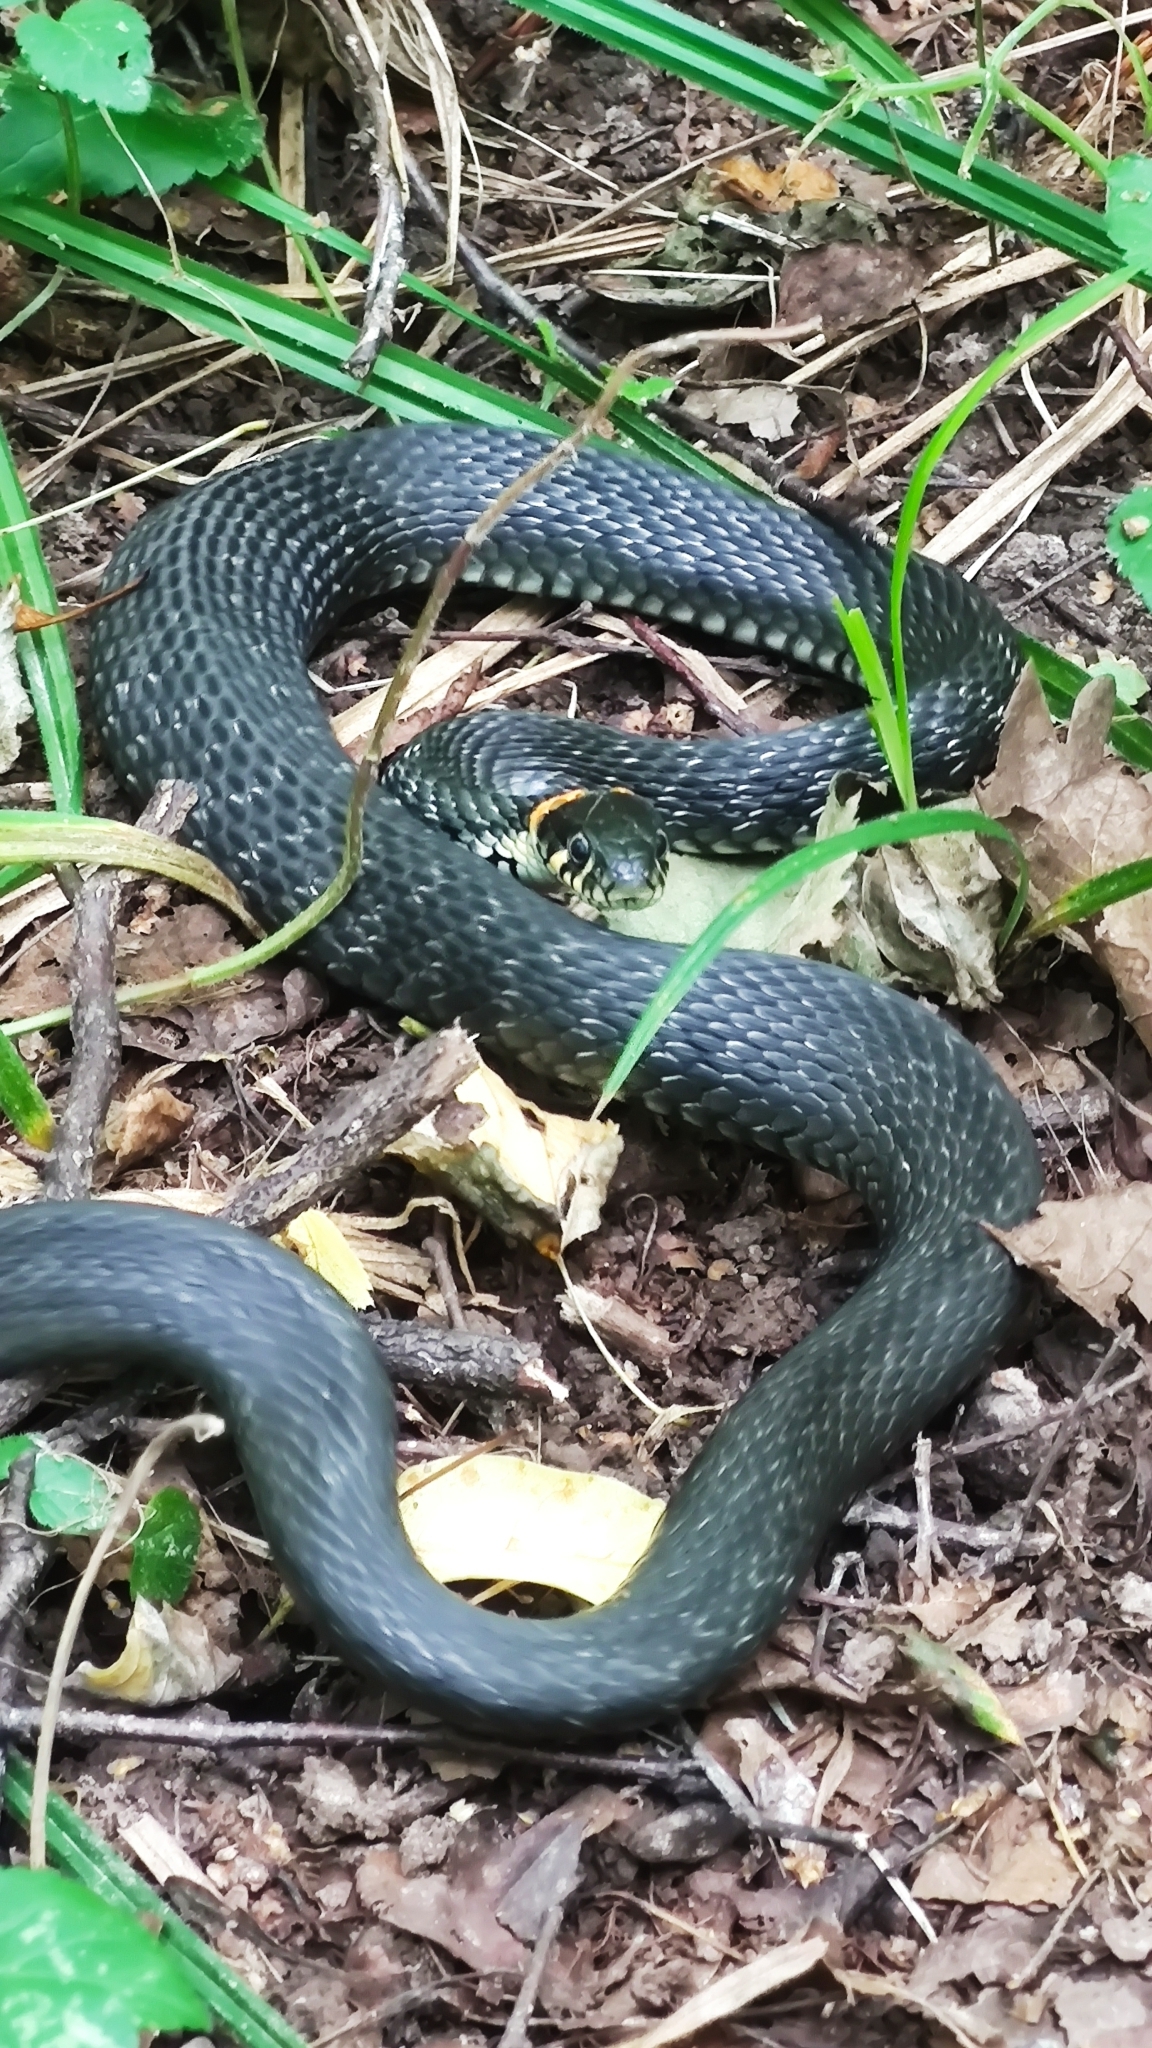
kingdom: Animalia
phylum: Chordata
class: Squamata
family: Colubridae
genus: Natrix
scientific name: Natrix natrix
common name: Grass snake
